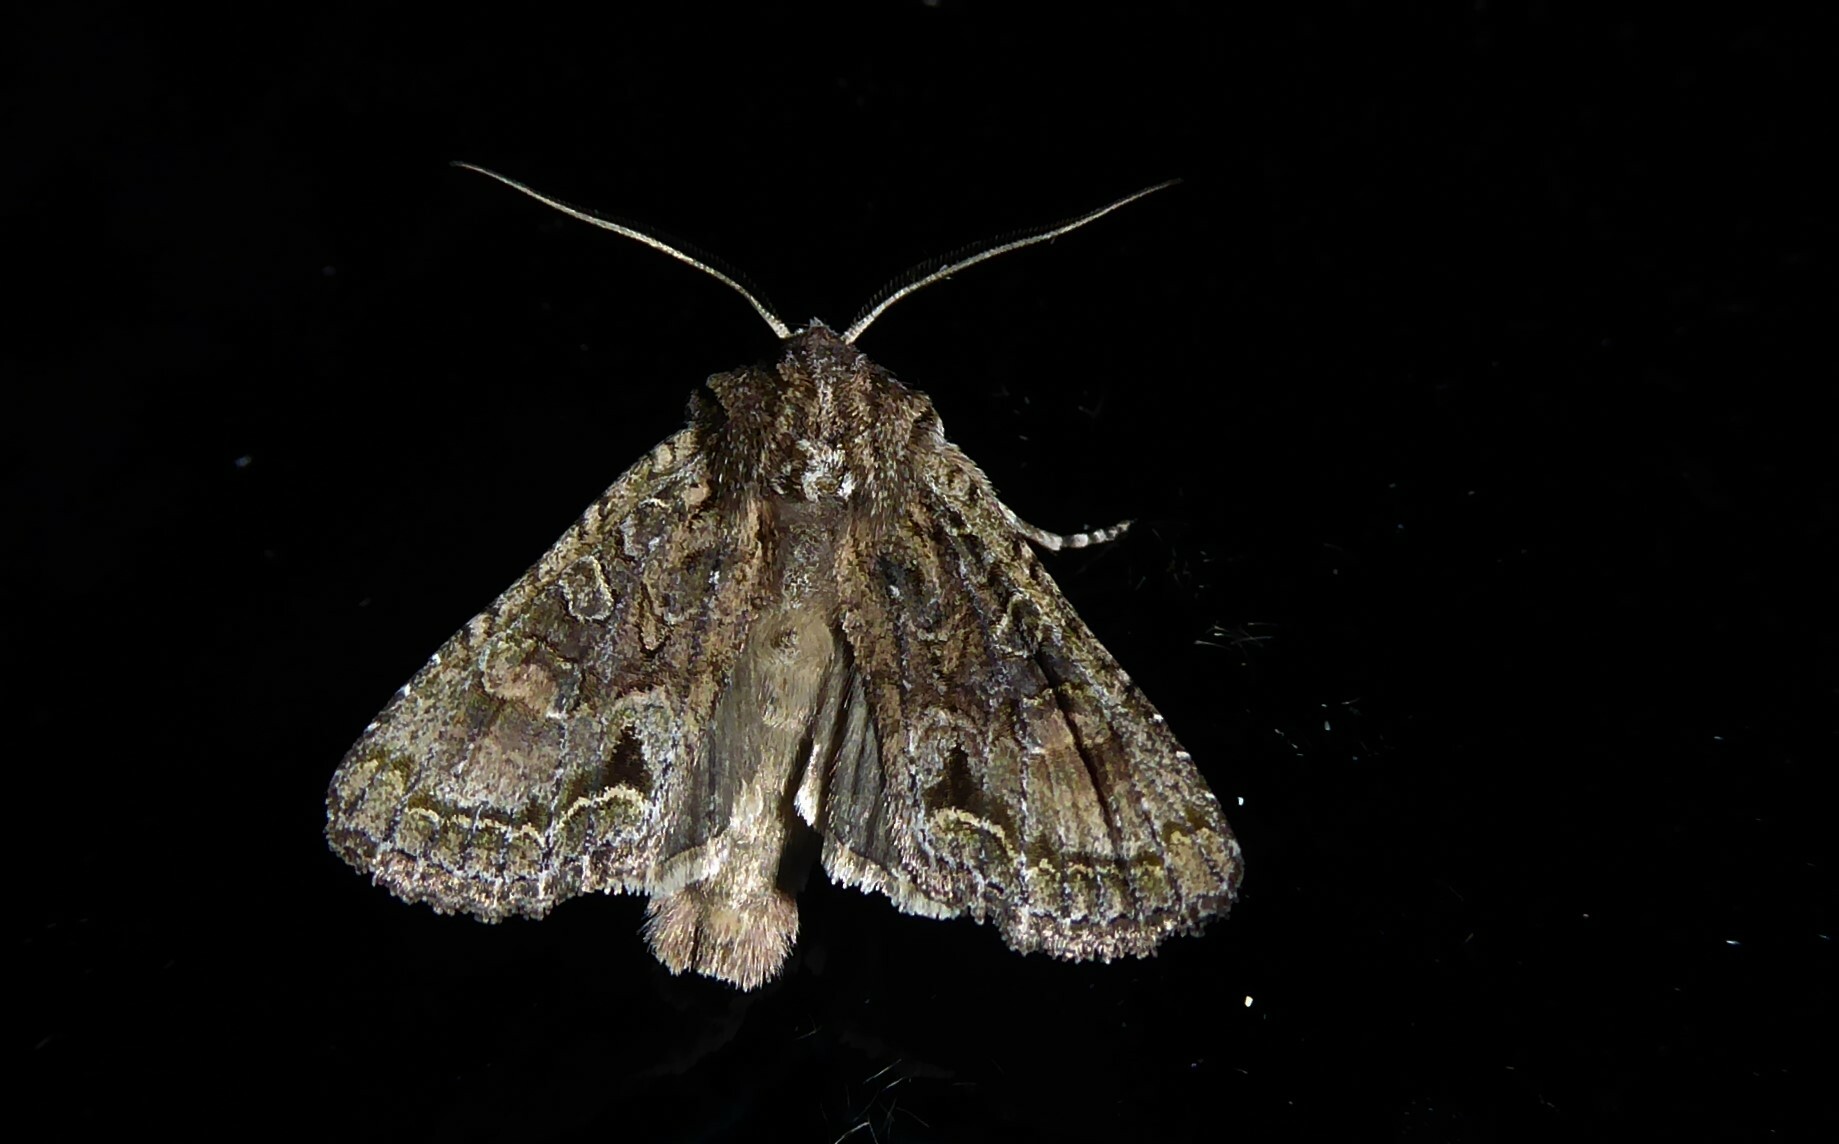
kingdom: Animalia
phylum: Arthropoda
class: Insecta
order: Lepidoptera
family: Noctuidae
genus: Ichneutica
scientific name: Ichneutica mutans
